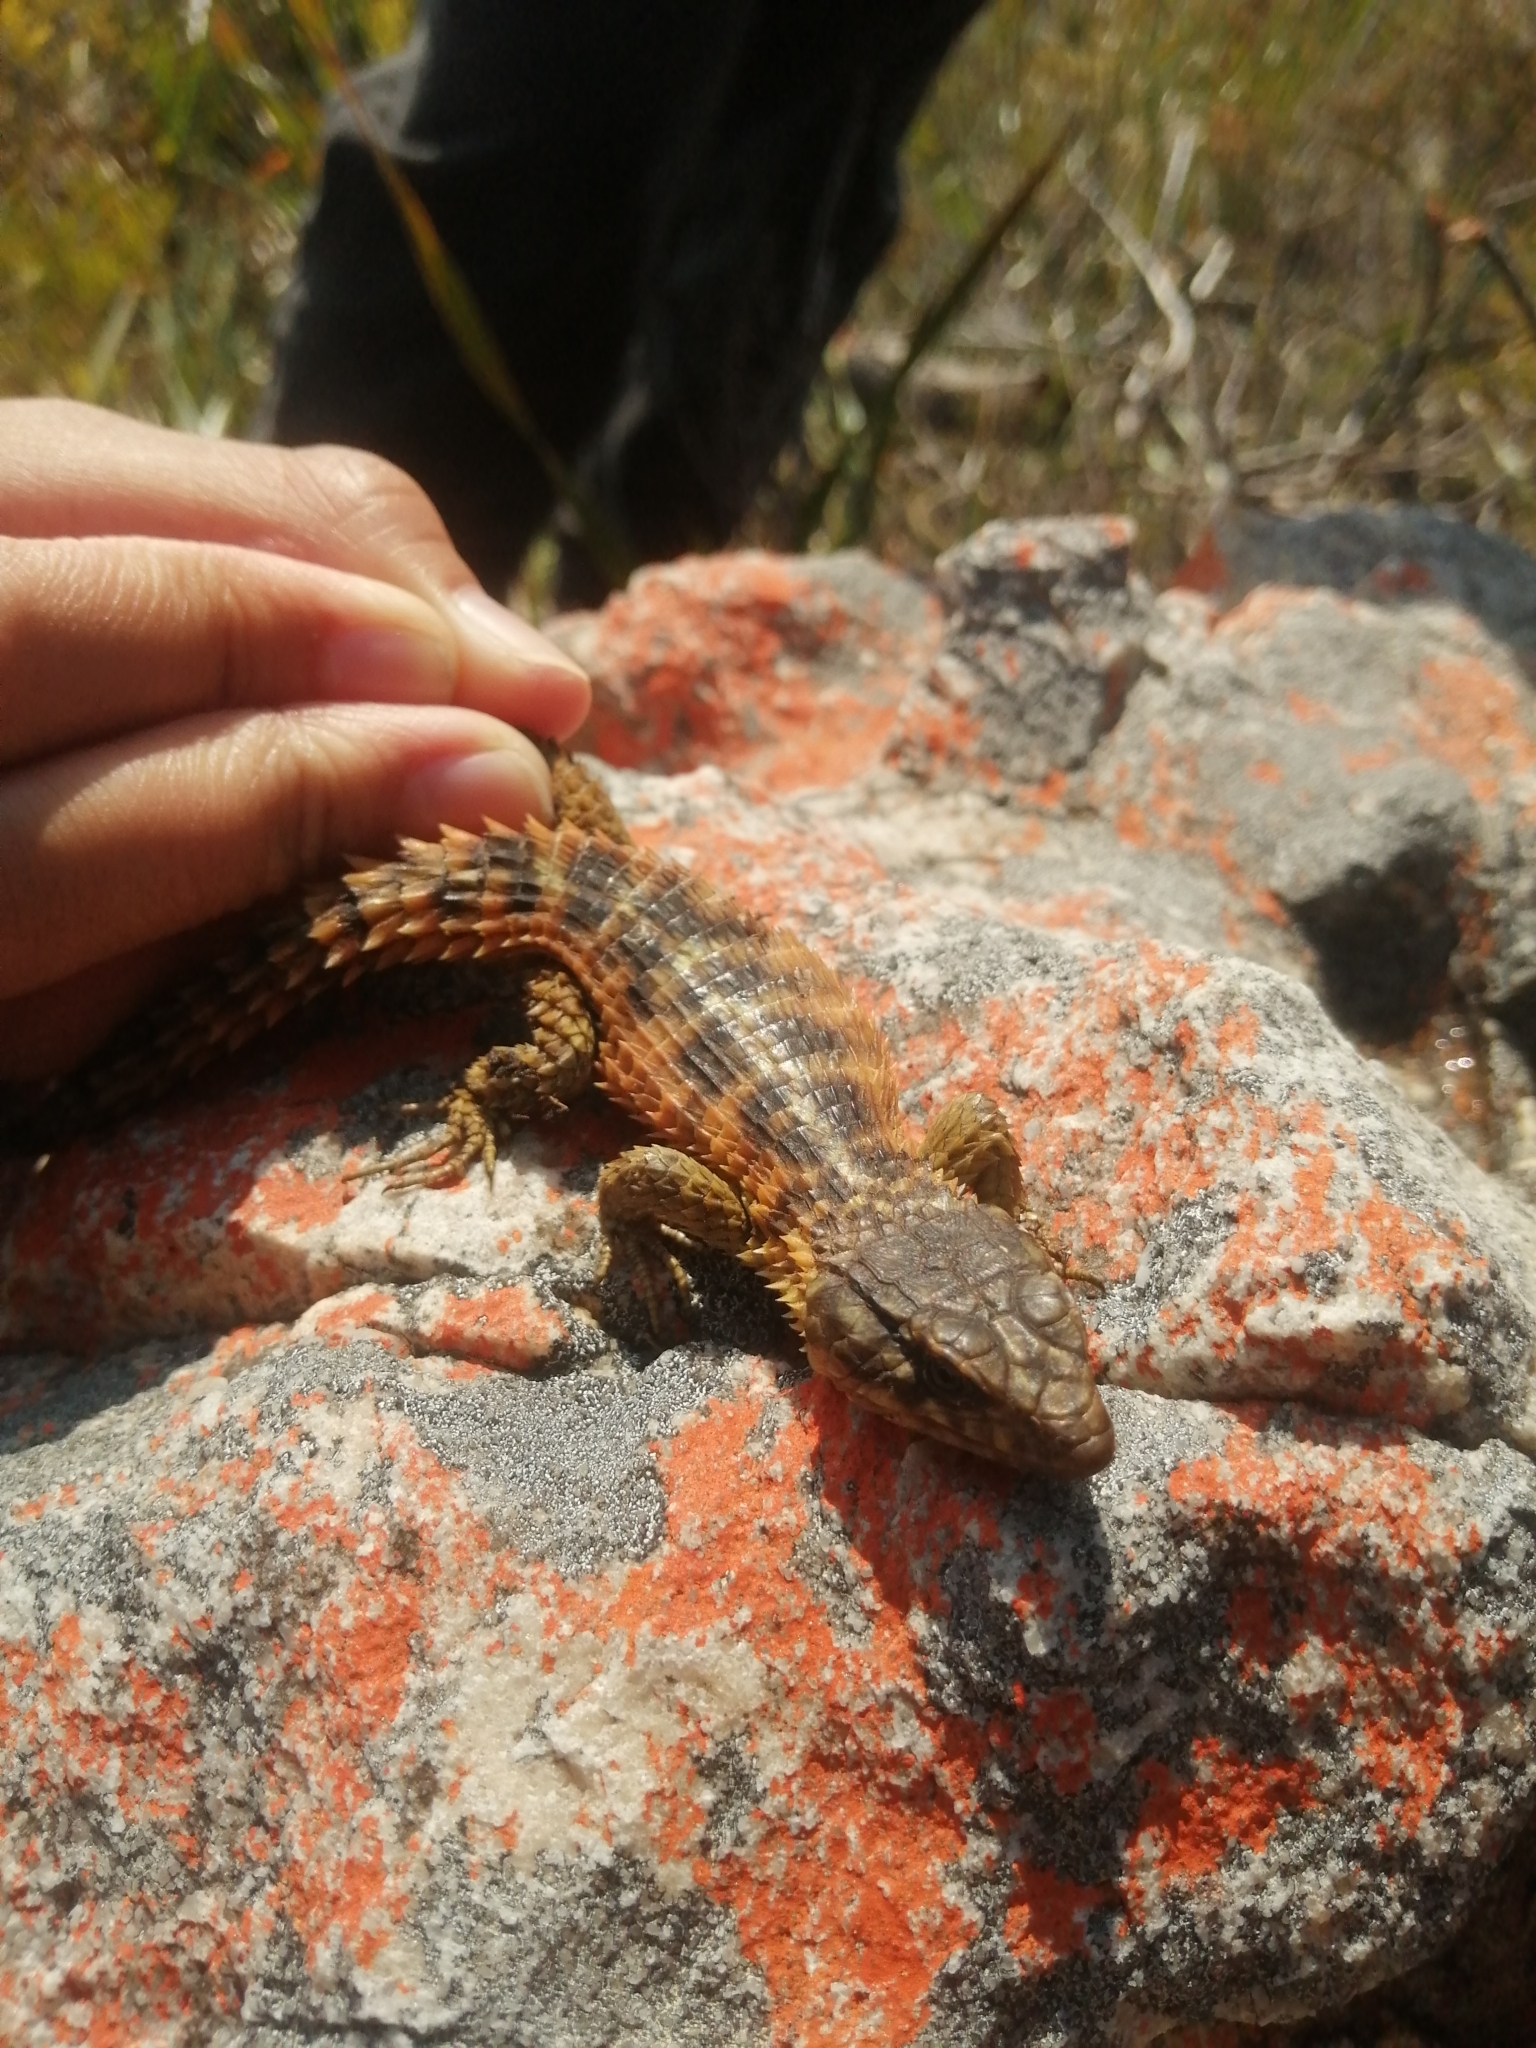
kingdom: Animalia
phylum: Chordata
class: Squamata
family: Cordylidae
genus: Cordylus
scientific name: Cordylus cordylus
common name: Cape girdled lizard
